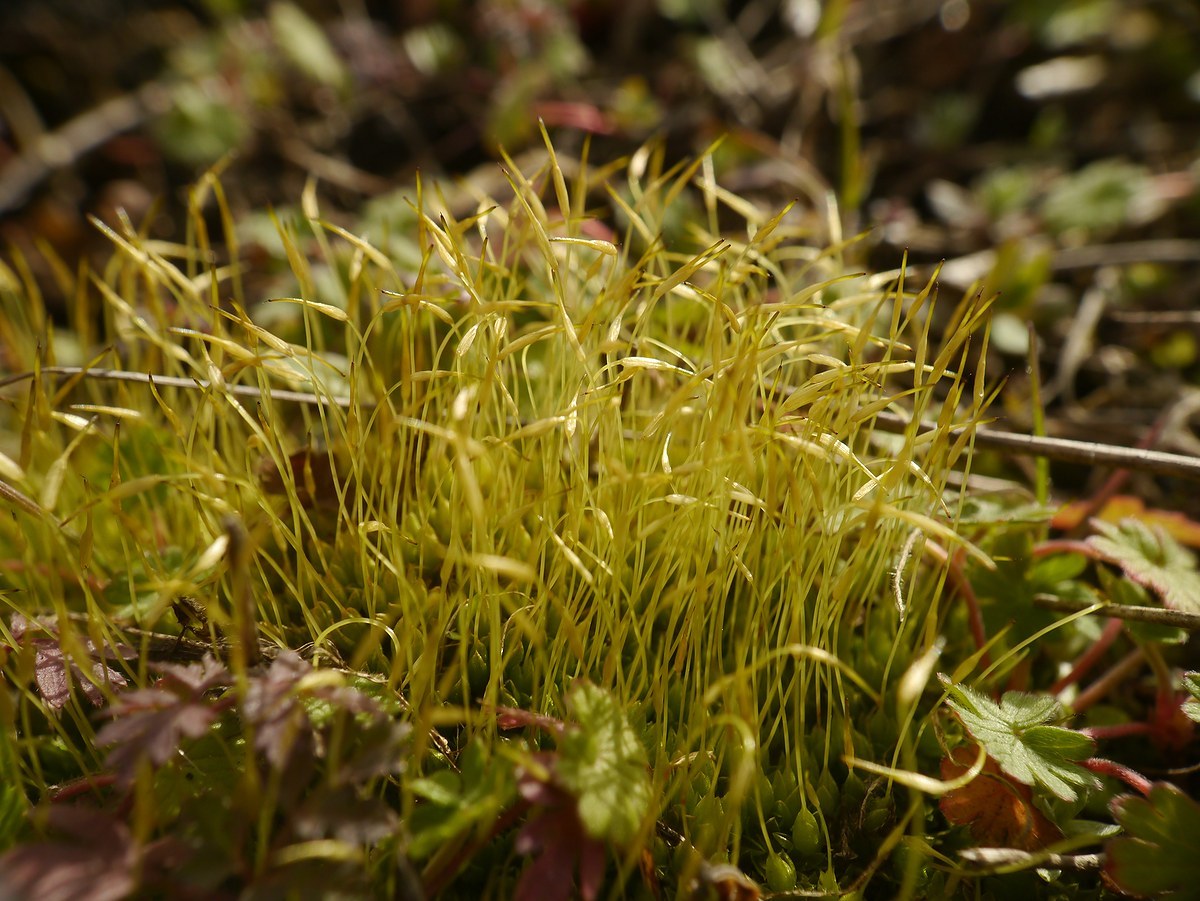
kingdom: Plantae
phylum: Bryophyta
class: Bryopsida
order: Funariales
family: Funariaceae
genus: Funaria
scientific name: Funaria hygrometrica
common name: Common cord moss
